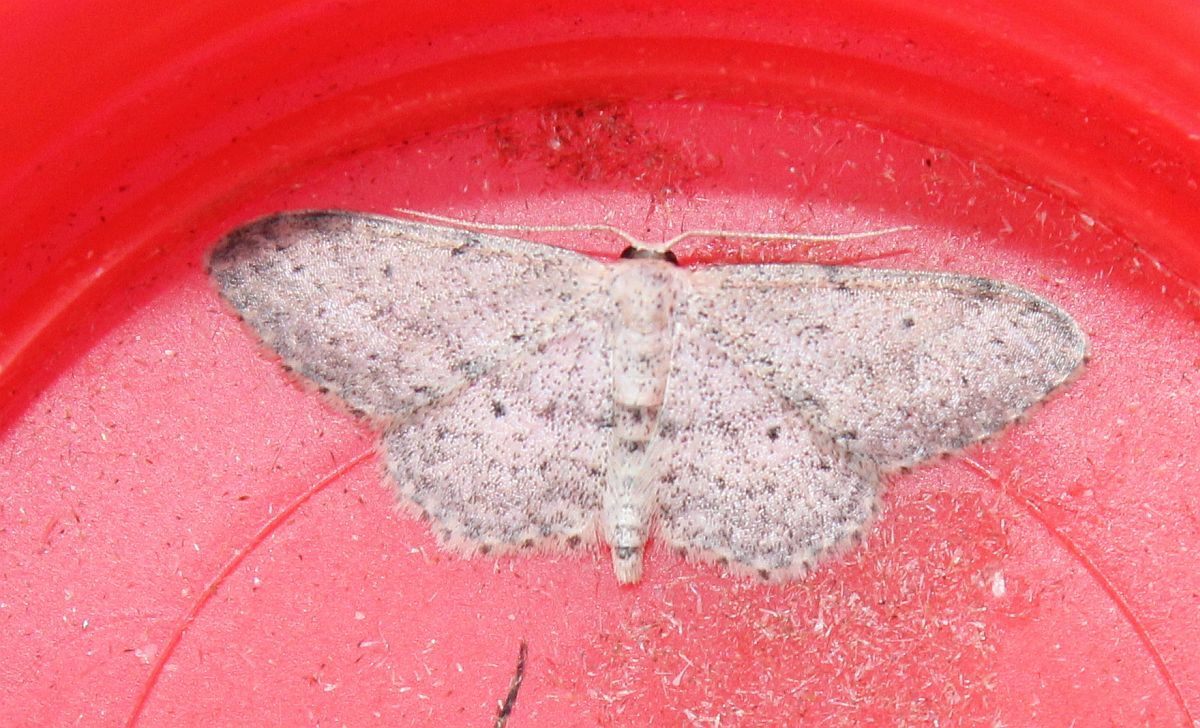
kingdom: Animalia
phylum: Arthropoda
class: Insecta
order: Lepidoptera
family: Geometridae
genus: Idaea
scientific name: Idaea seriata
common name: Small dusty wave
